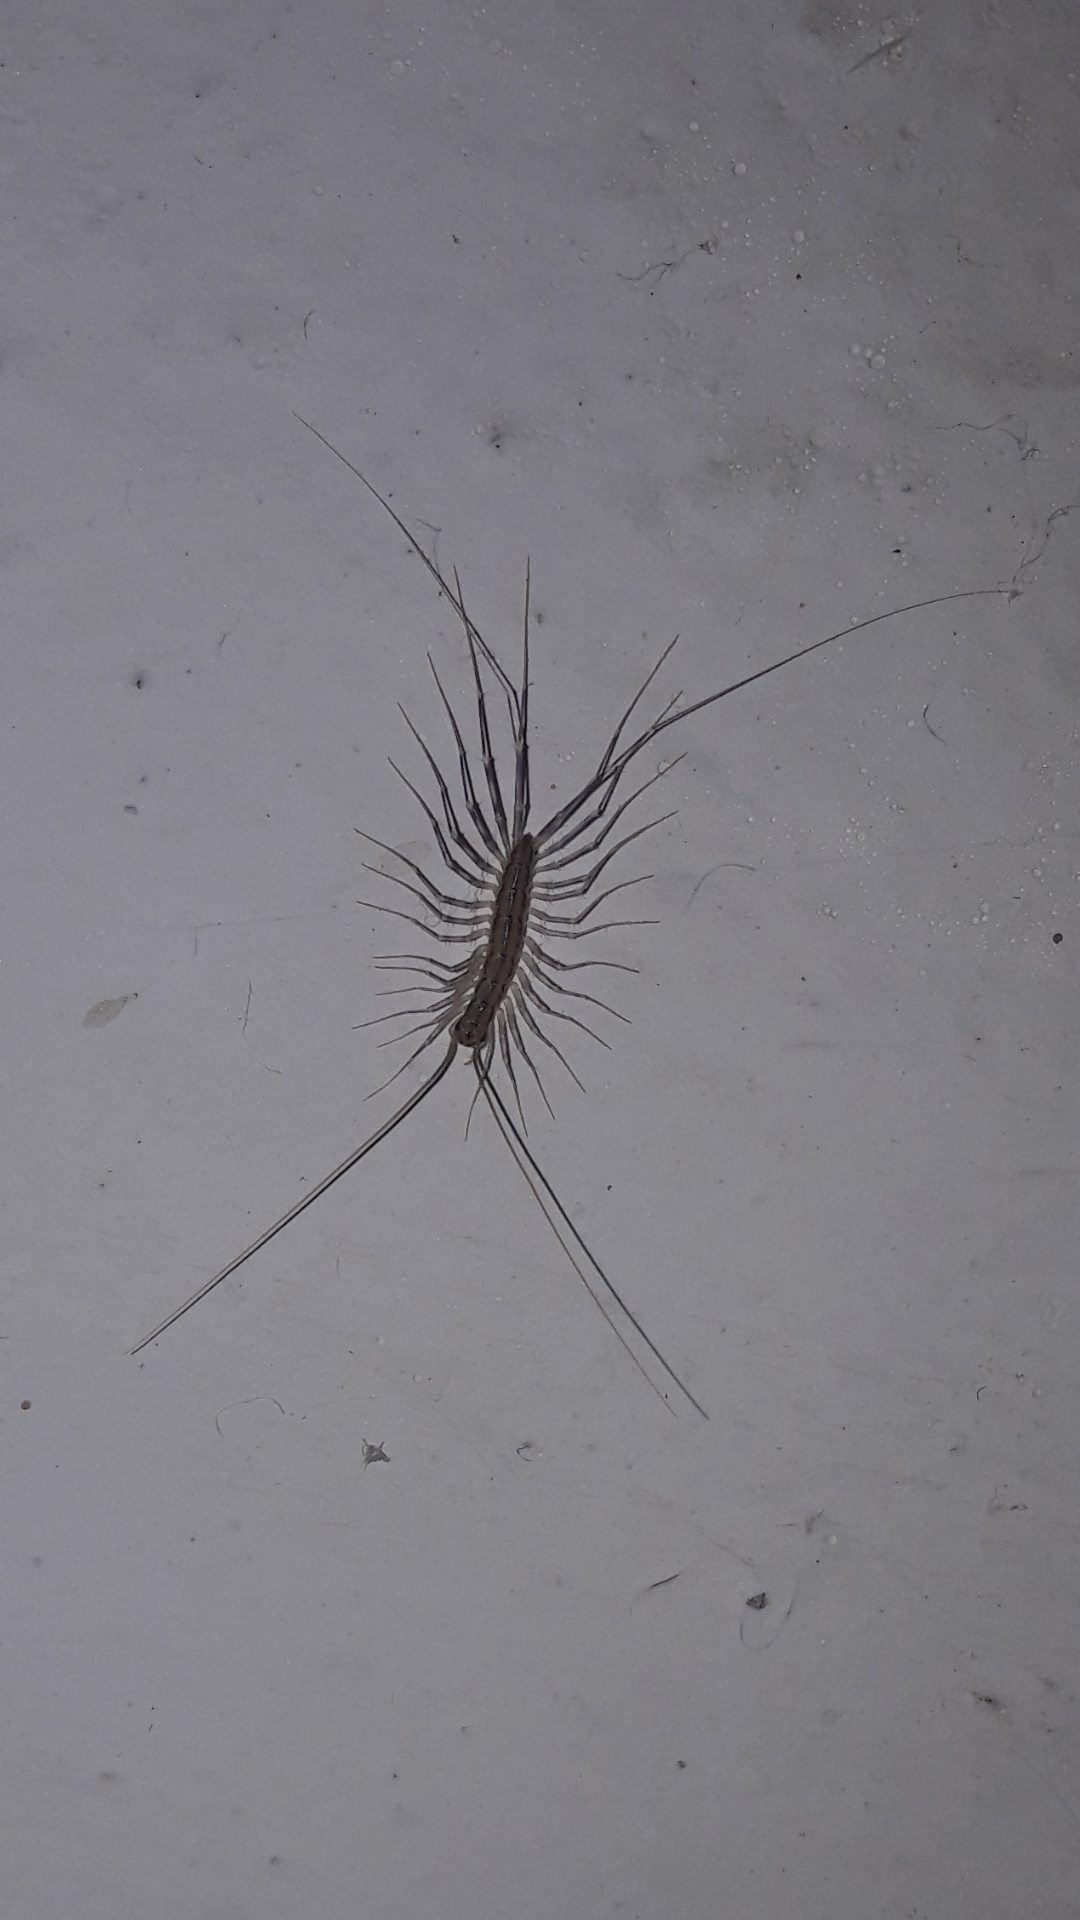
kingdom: Animalia
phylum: Arthropoda
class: Chilopoda
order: Scutigeromorpha
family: Scutigeridae
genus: Scutigera
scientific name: Scutigera coleoptrata
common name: House centipede
